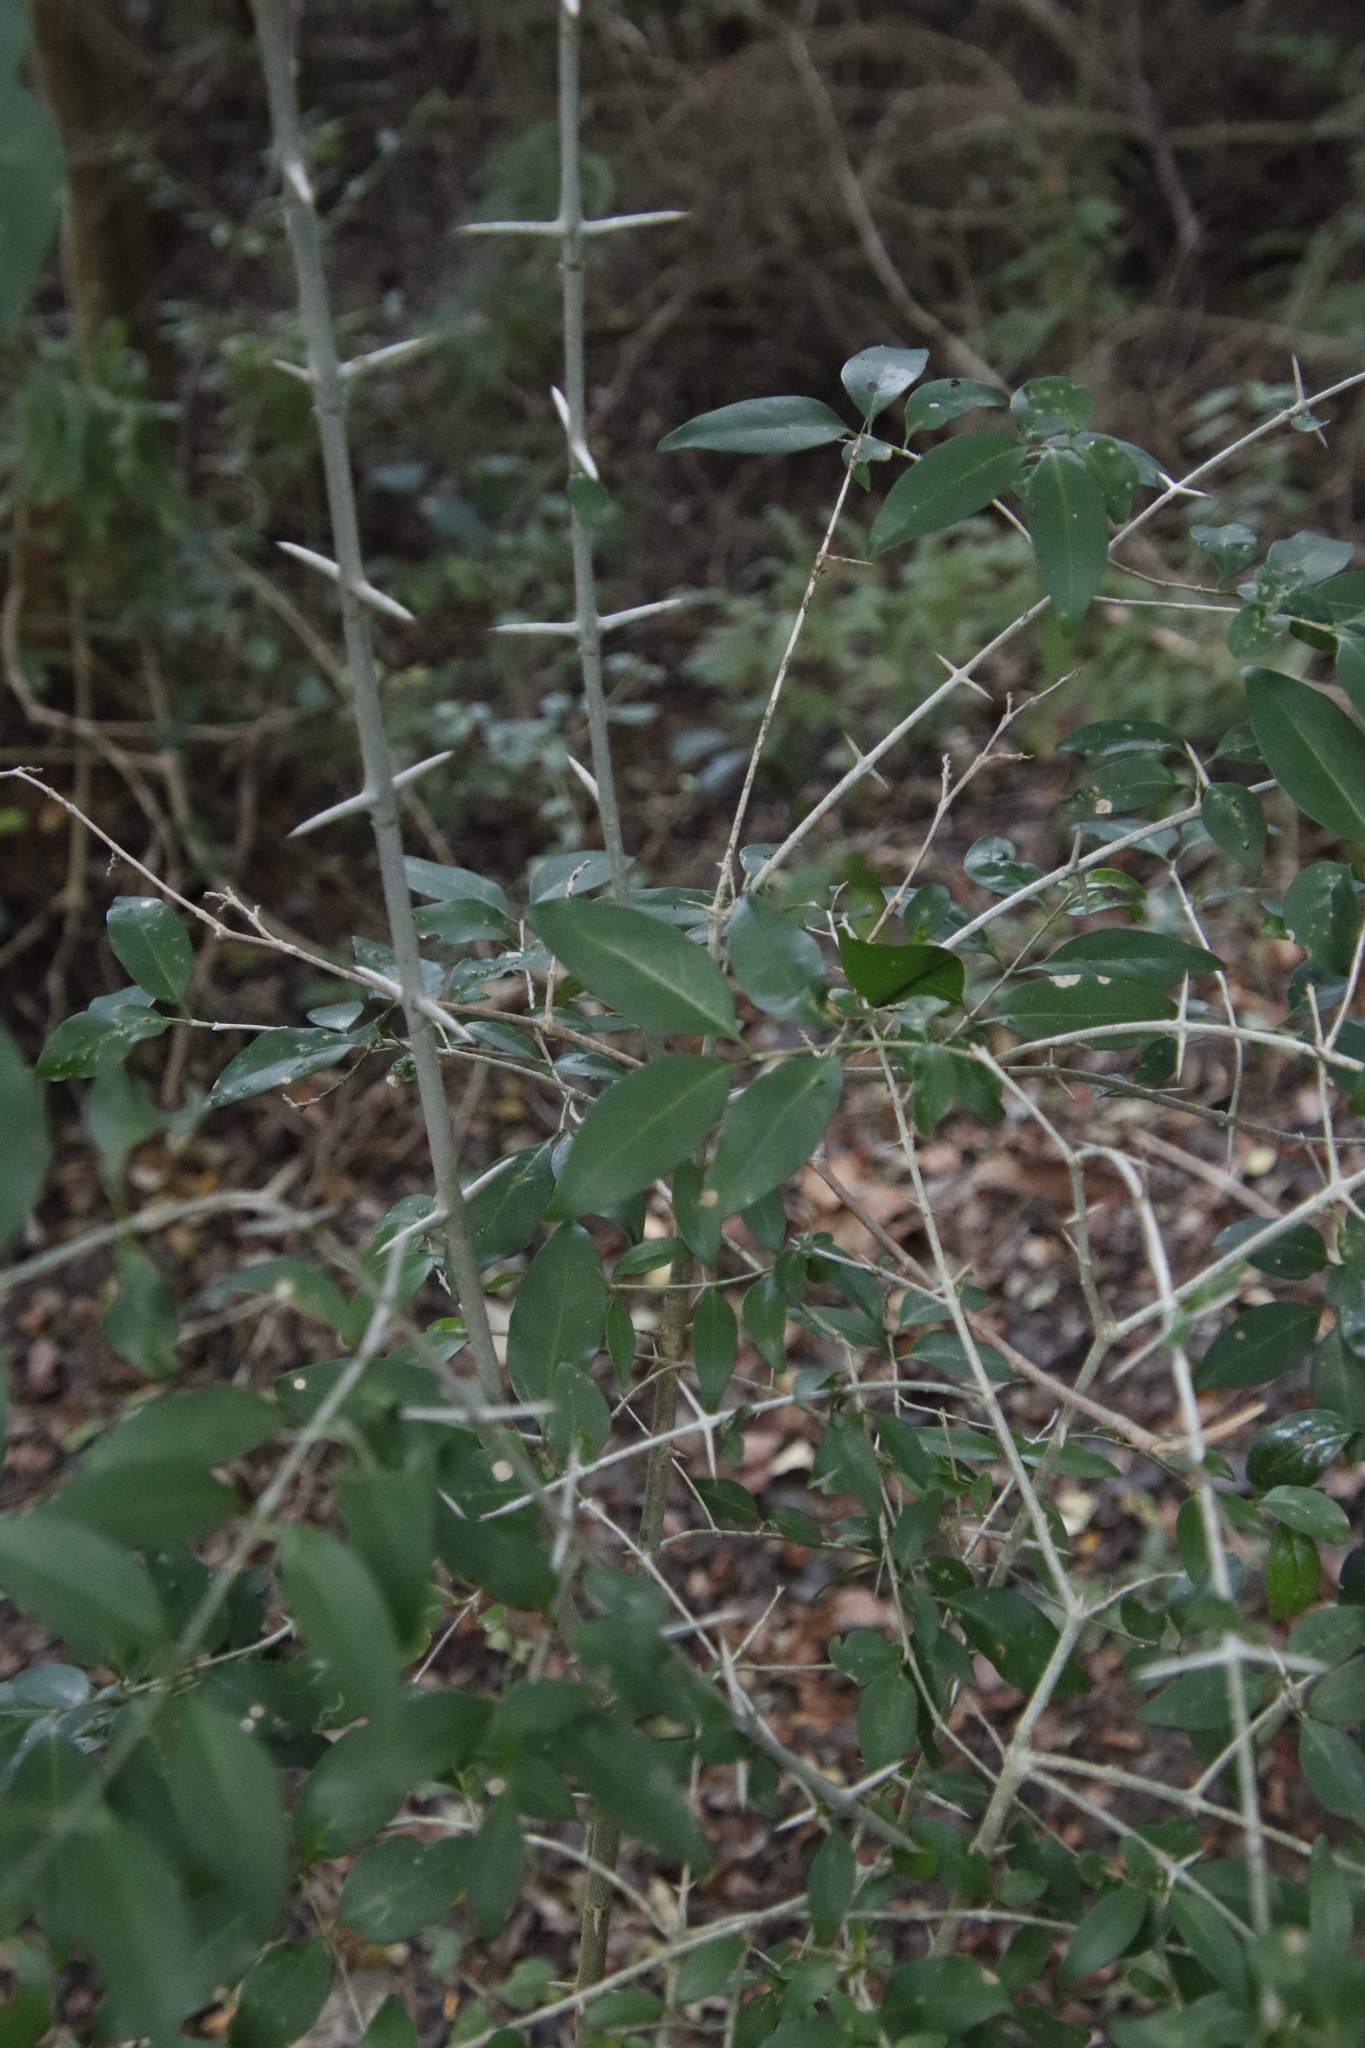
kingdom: Plantae
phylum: Tracheophyta
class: Magnoliopsida
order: Gentianales
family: Rubiaceae
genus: Canthium
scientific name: Canthium inerme
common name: Unarmed turkey-berry
